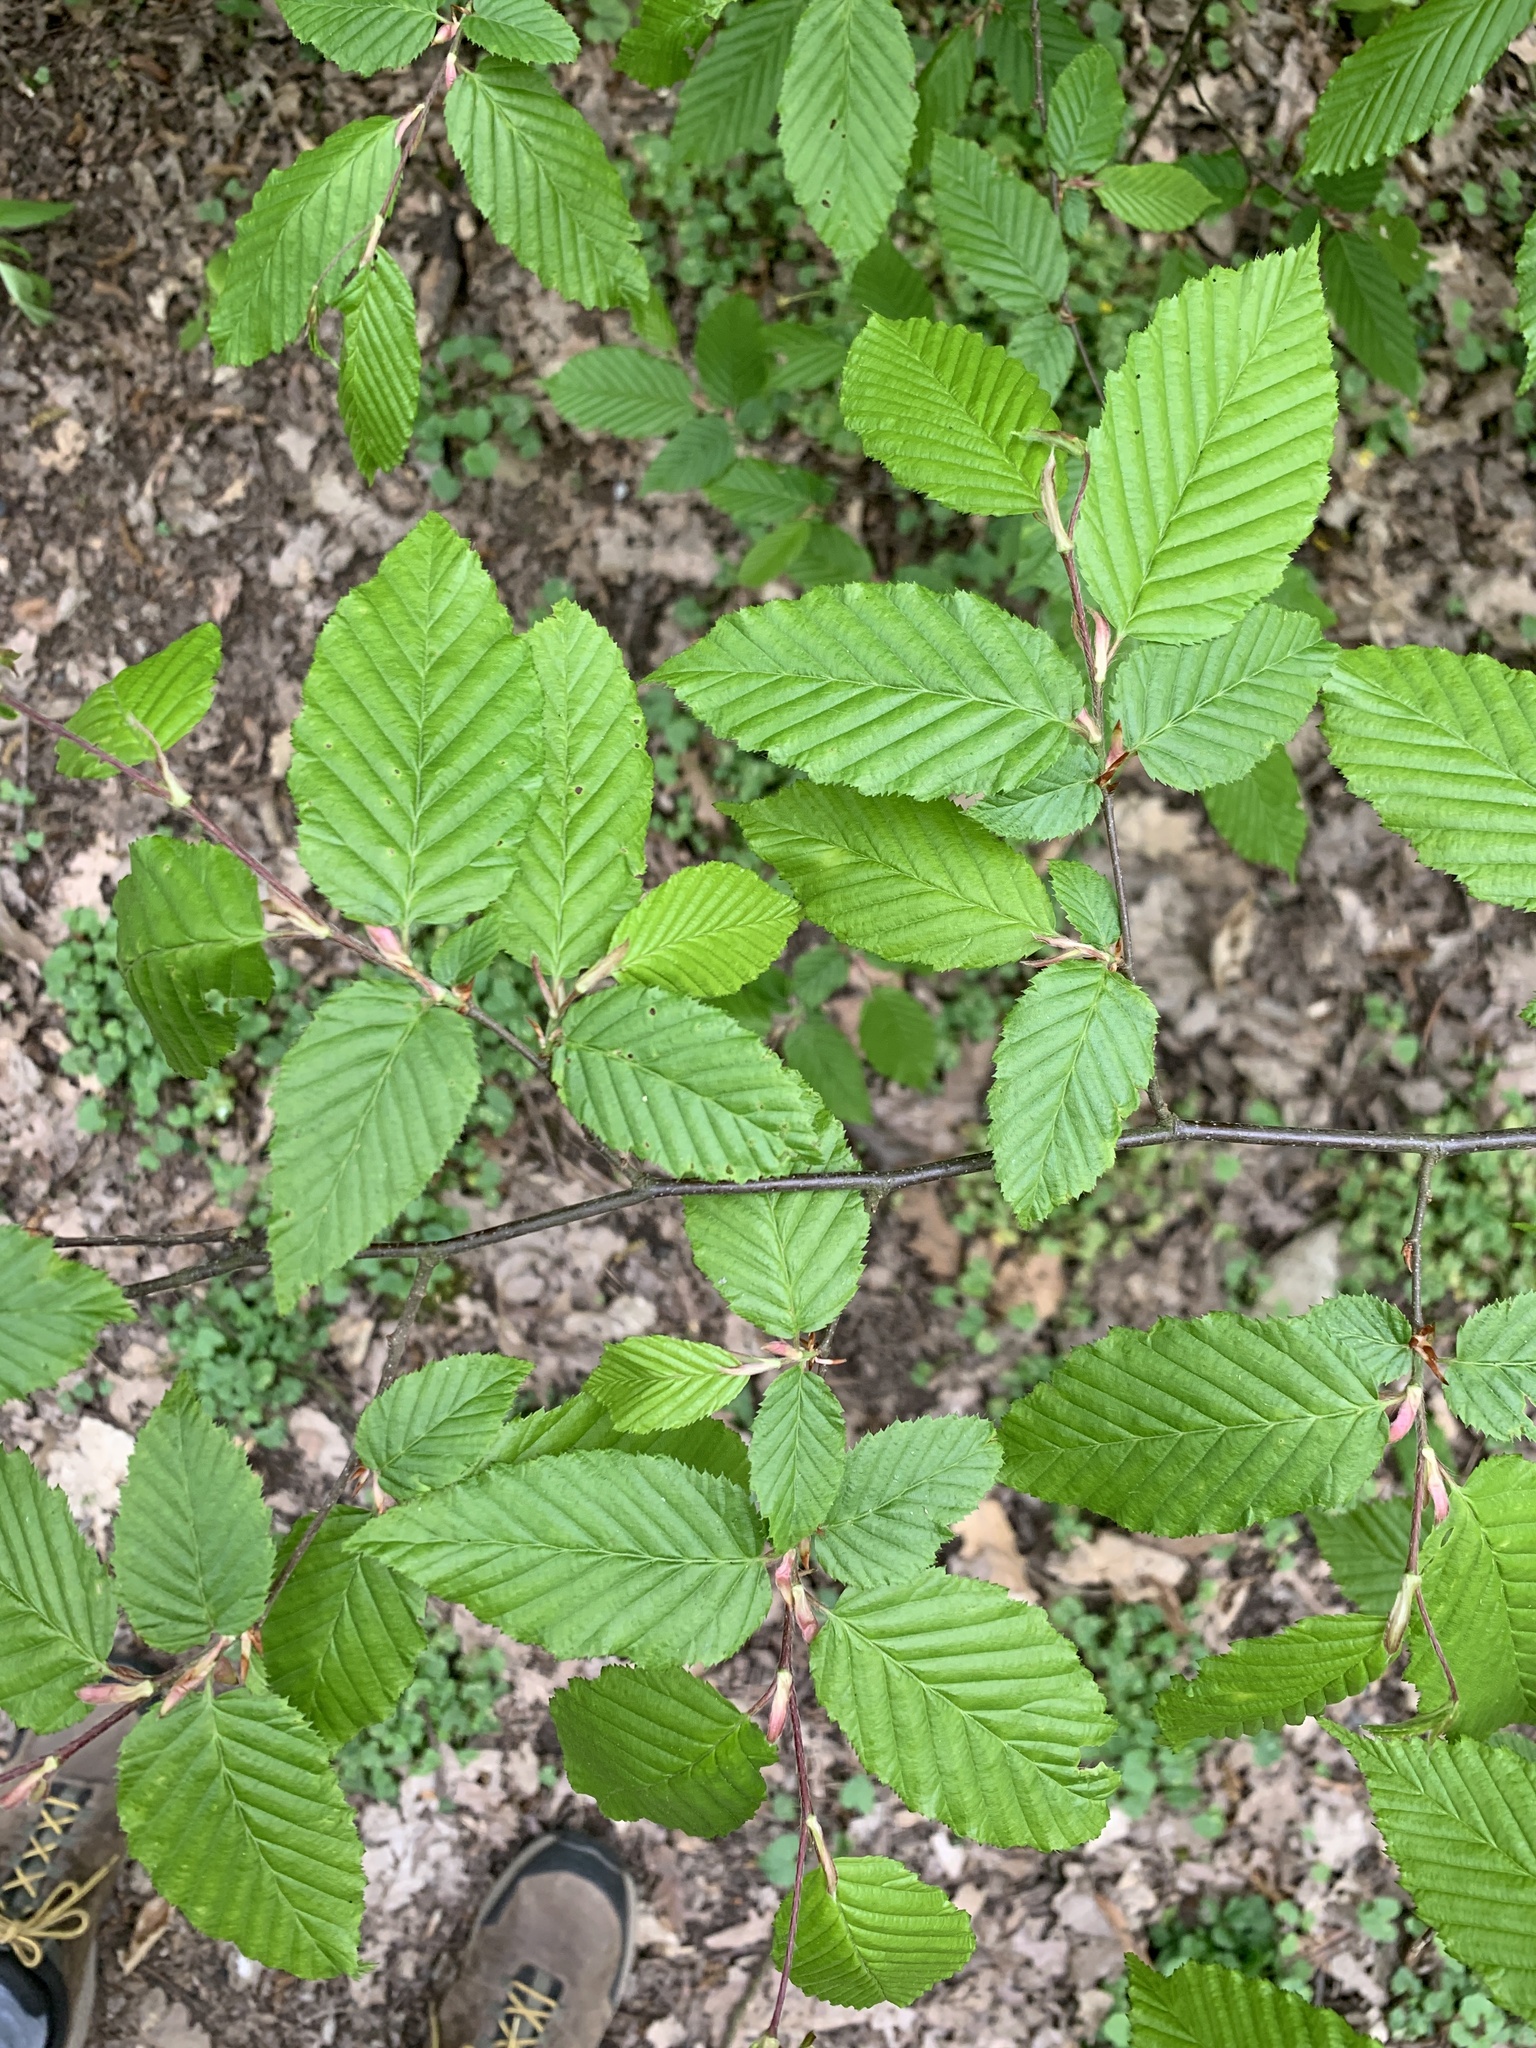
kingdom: Plantae
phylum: Tracheophyta
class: Magnoliopsida
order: Fagales
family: Betulaceae
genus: Carpinus
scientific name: Carpinus betulus
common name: Hornbeam
